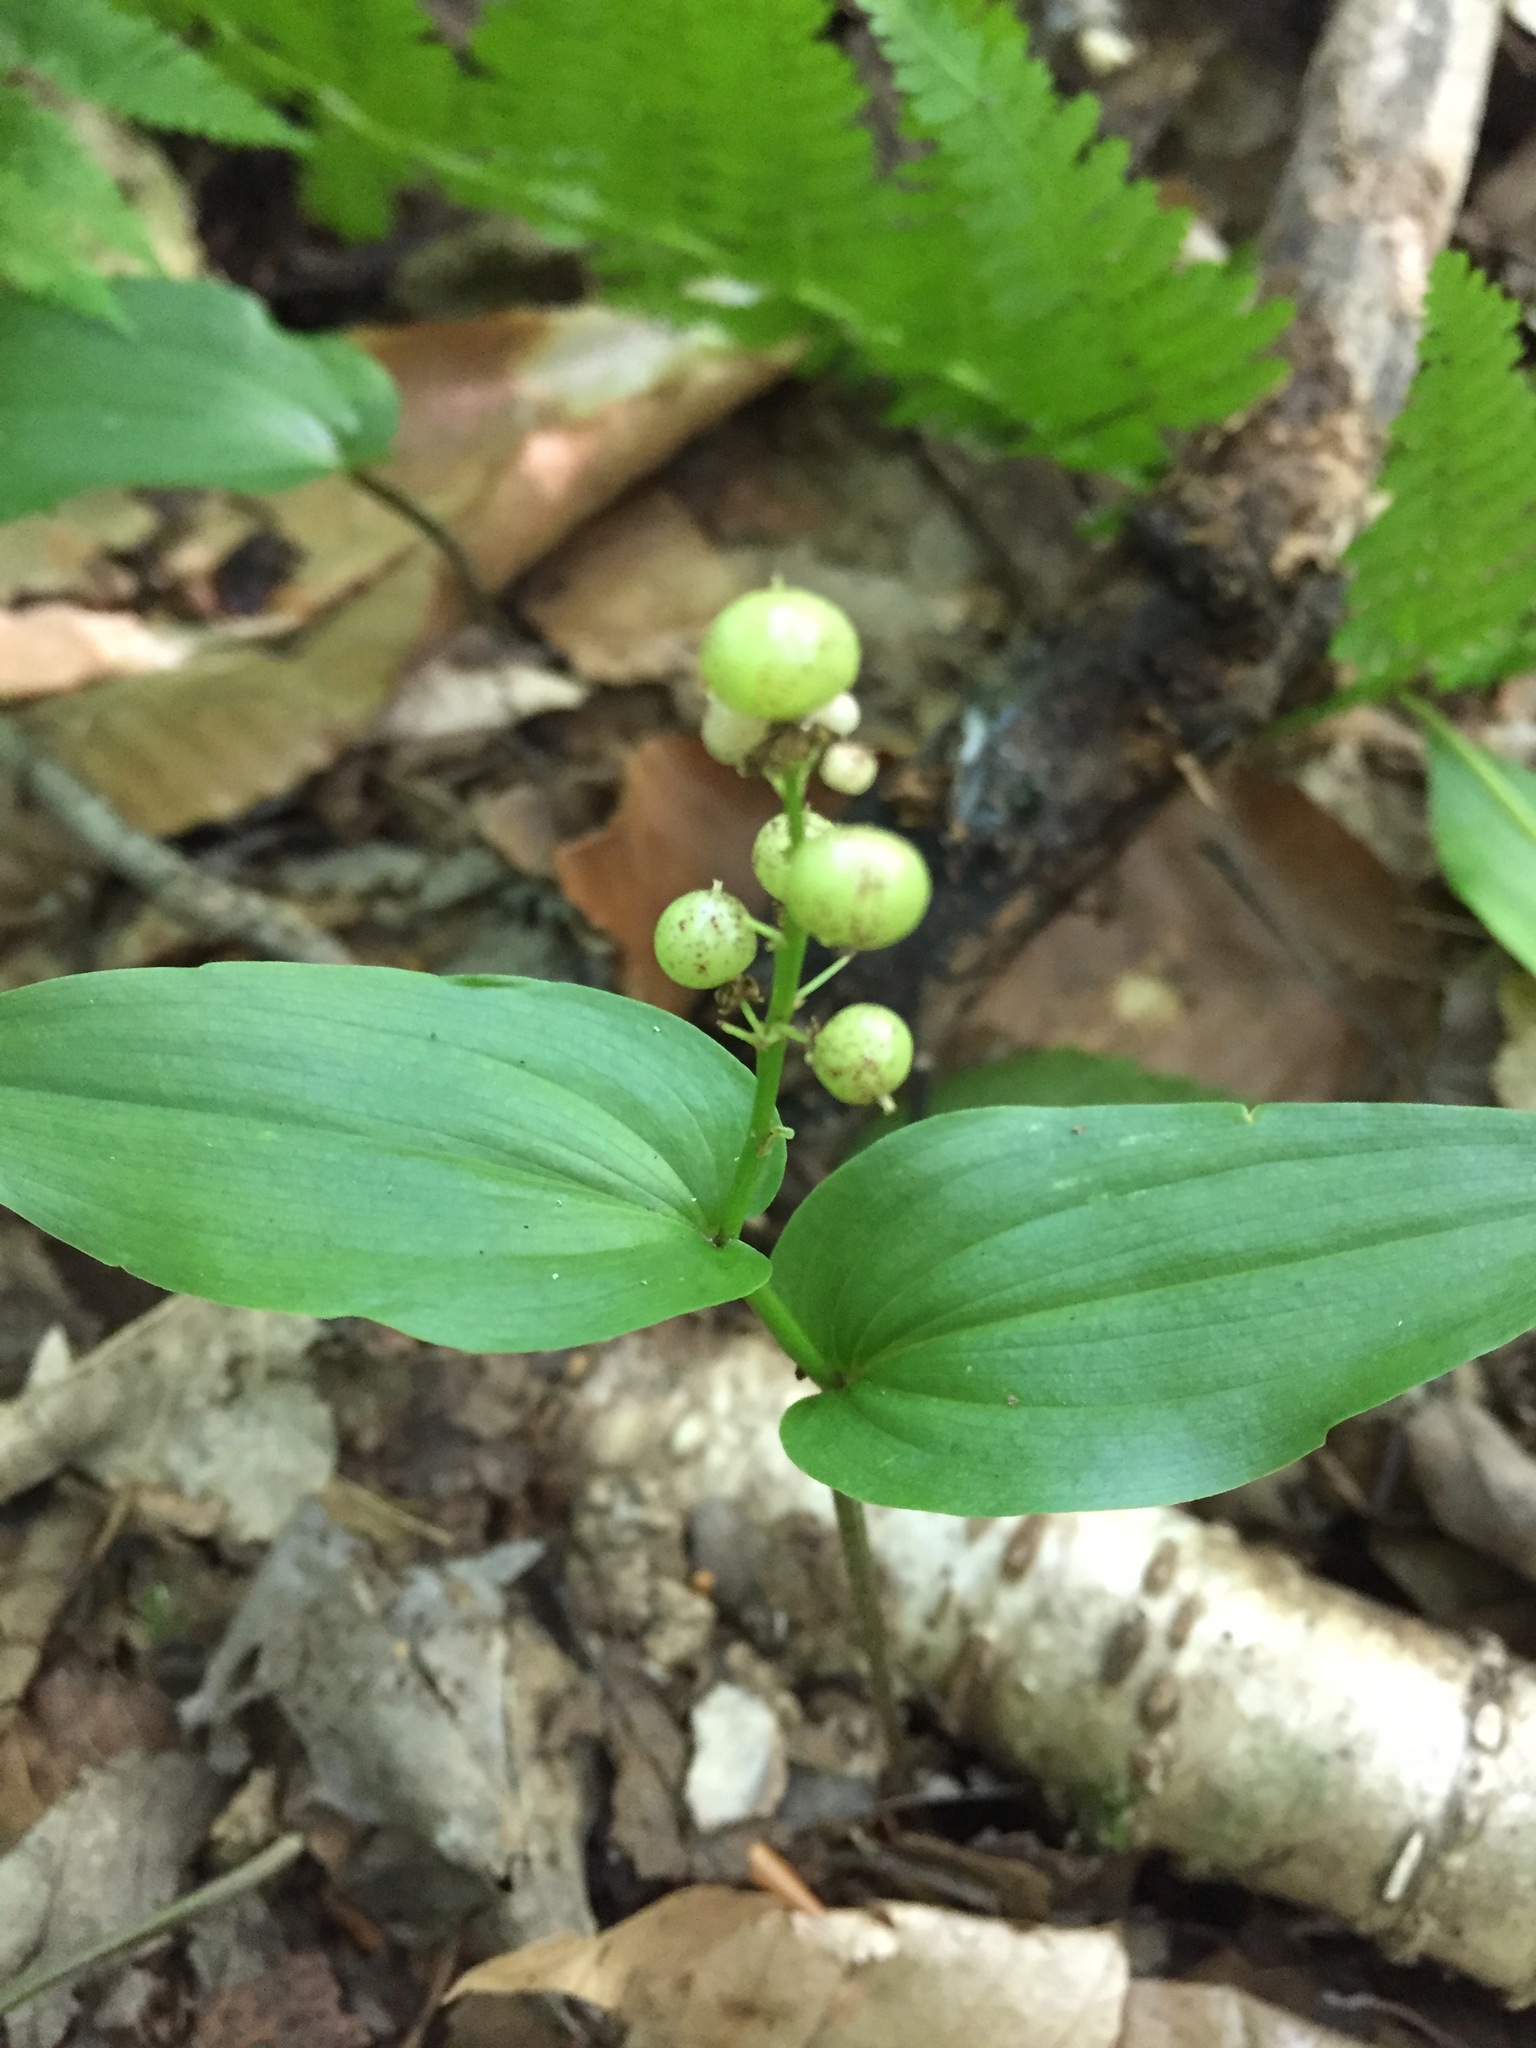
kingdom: Plantae
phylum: Tracheophyta
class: Liliopsida
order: Asparagales
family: Asparagaceae
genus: Maianthemum
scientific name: Maianthemum canadense
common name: False lily-of-the-valley
